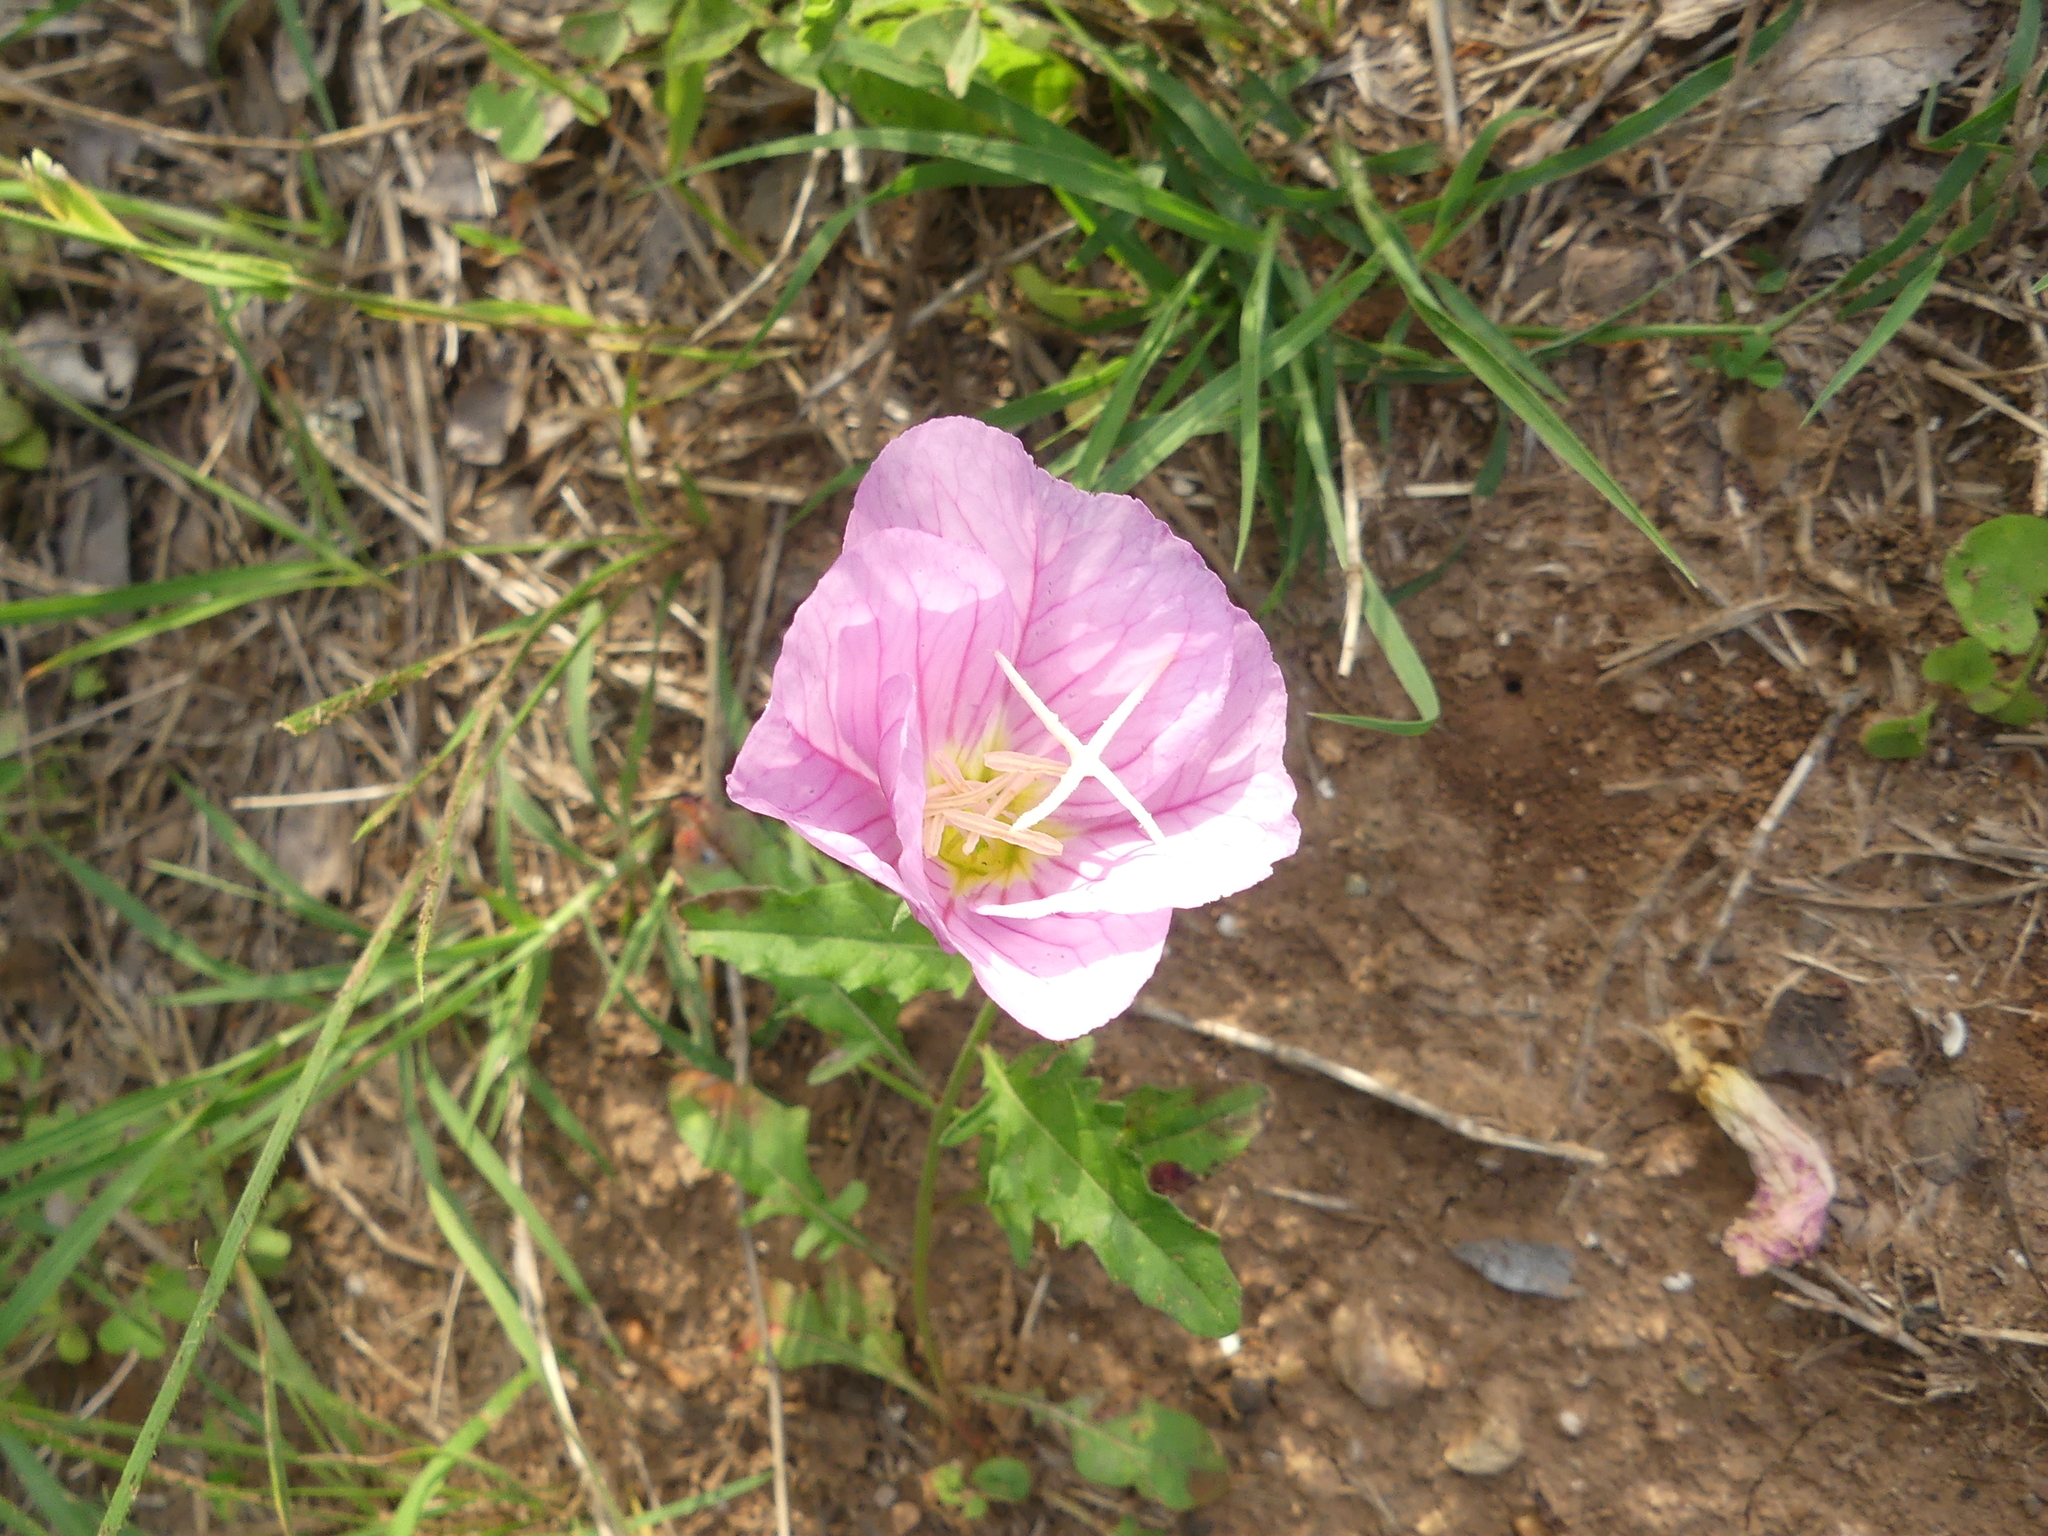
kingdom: Plantae
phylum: Tracheophyta
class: Magnoliopsida
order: Myrtales
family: Onagraceae
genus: Oenothera
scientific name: Oenothera speciosa
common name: White evening-primrose
